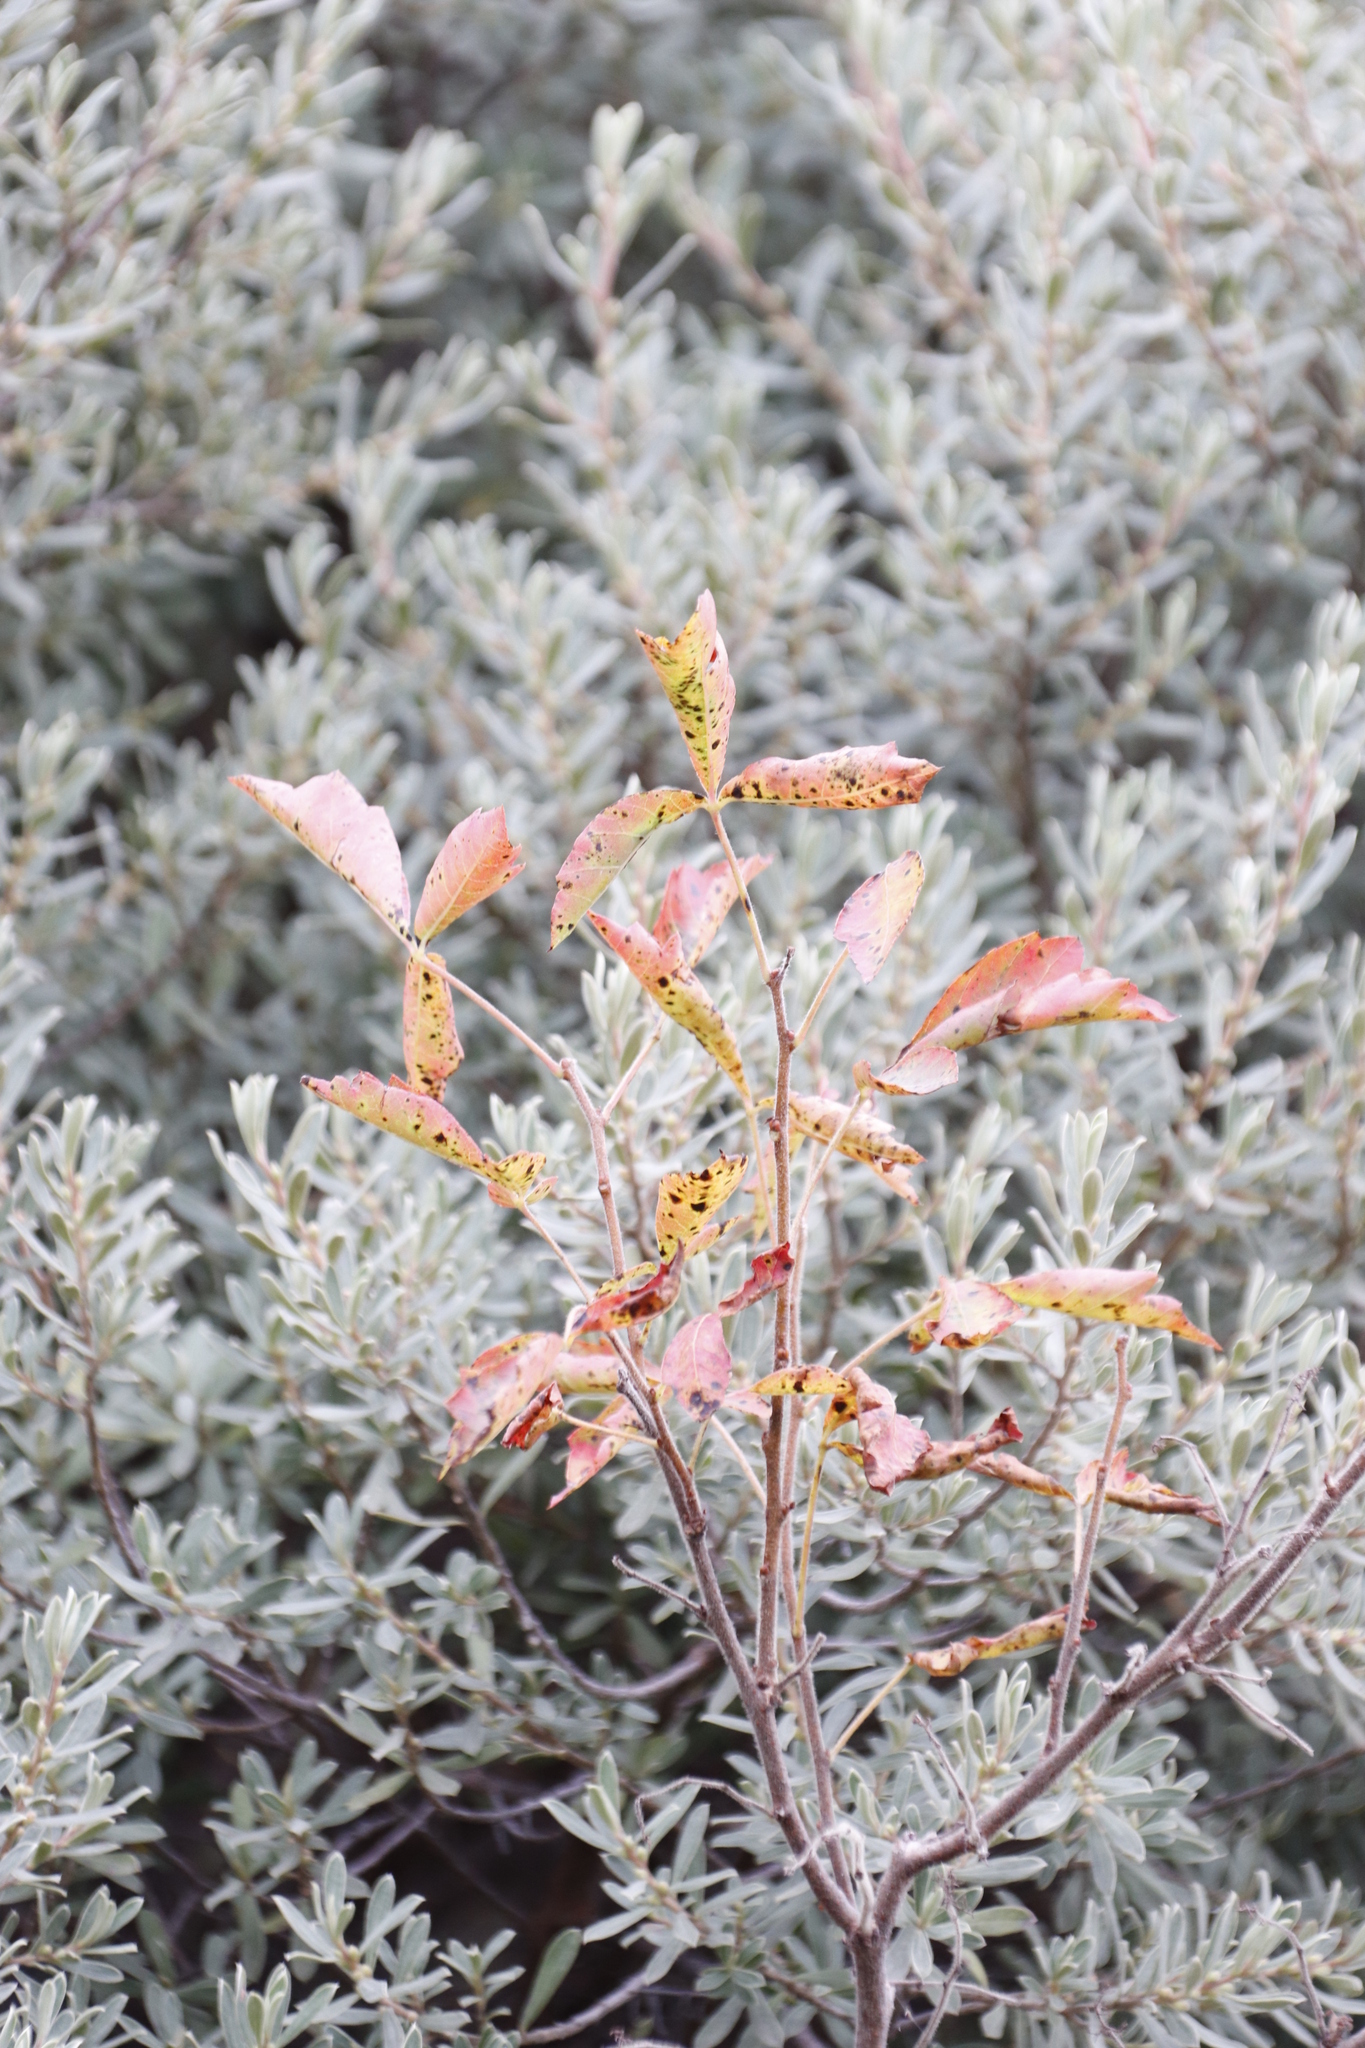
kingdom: Plantae
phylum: Tracheophyta
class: Magnoliopsida
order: Sapindales
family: Anacardiaceae
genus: Searsia
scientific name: Searsia dentata
